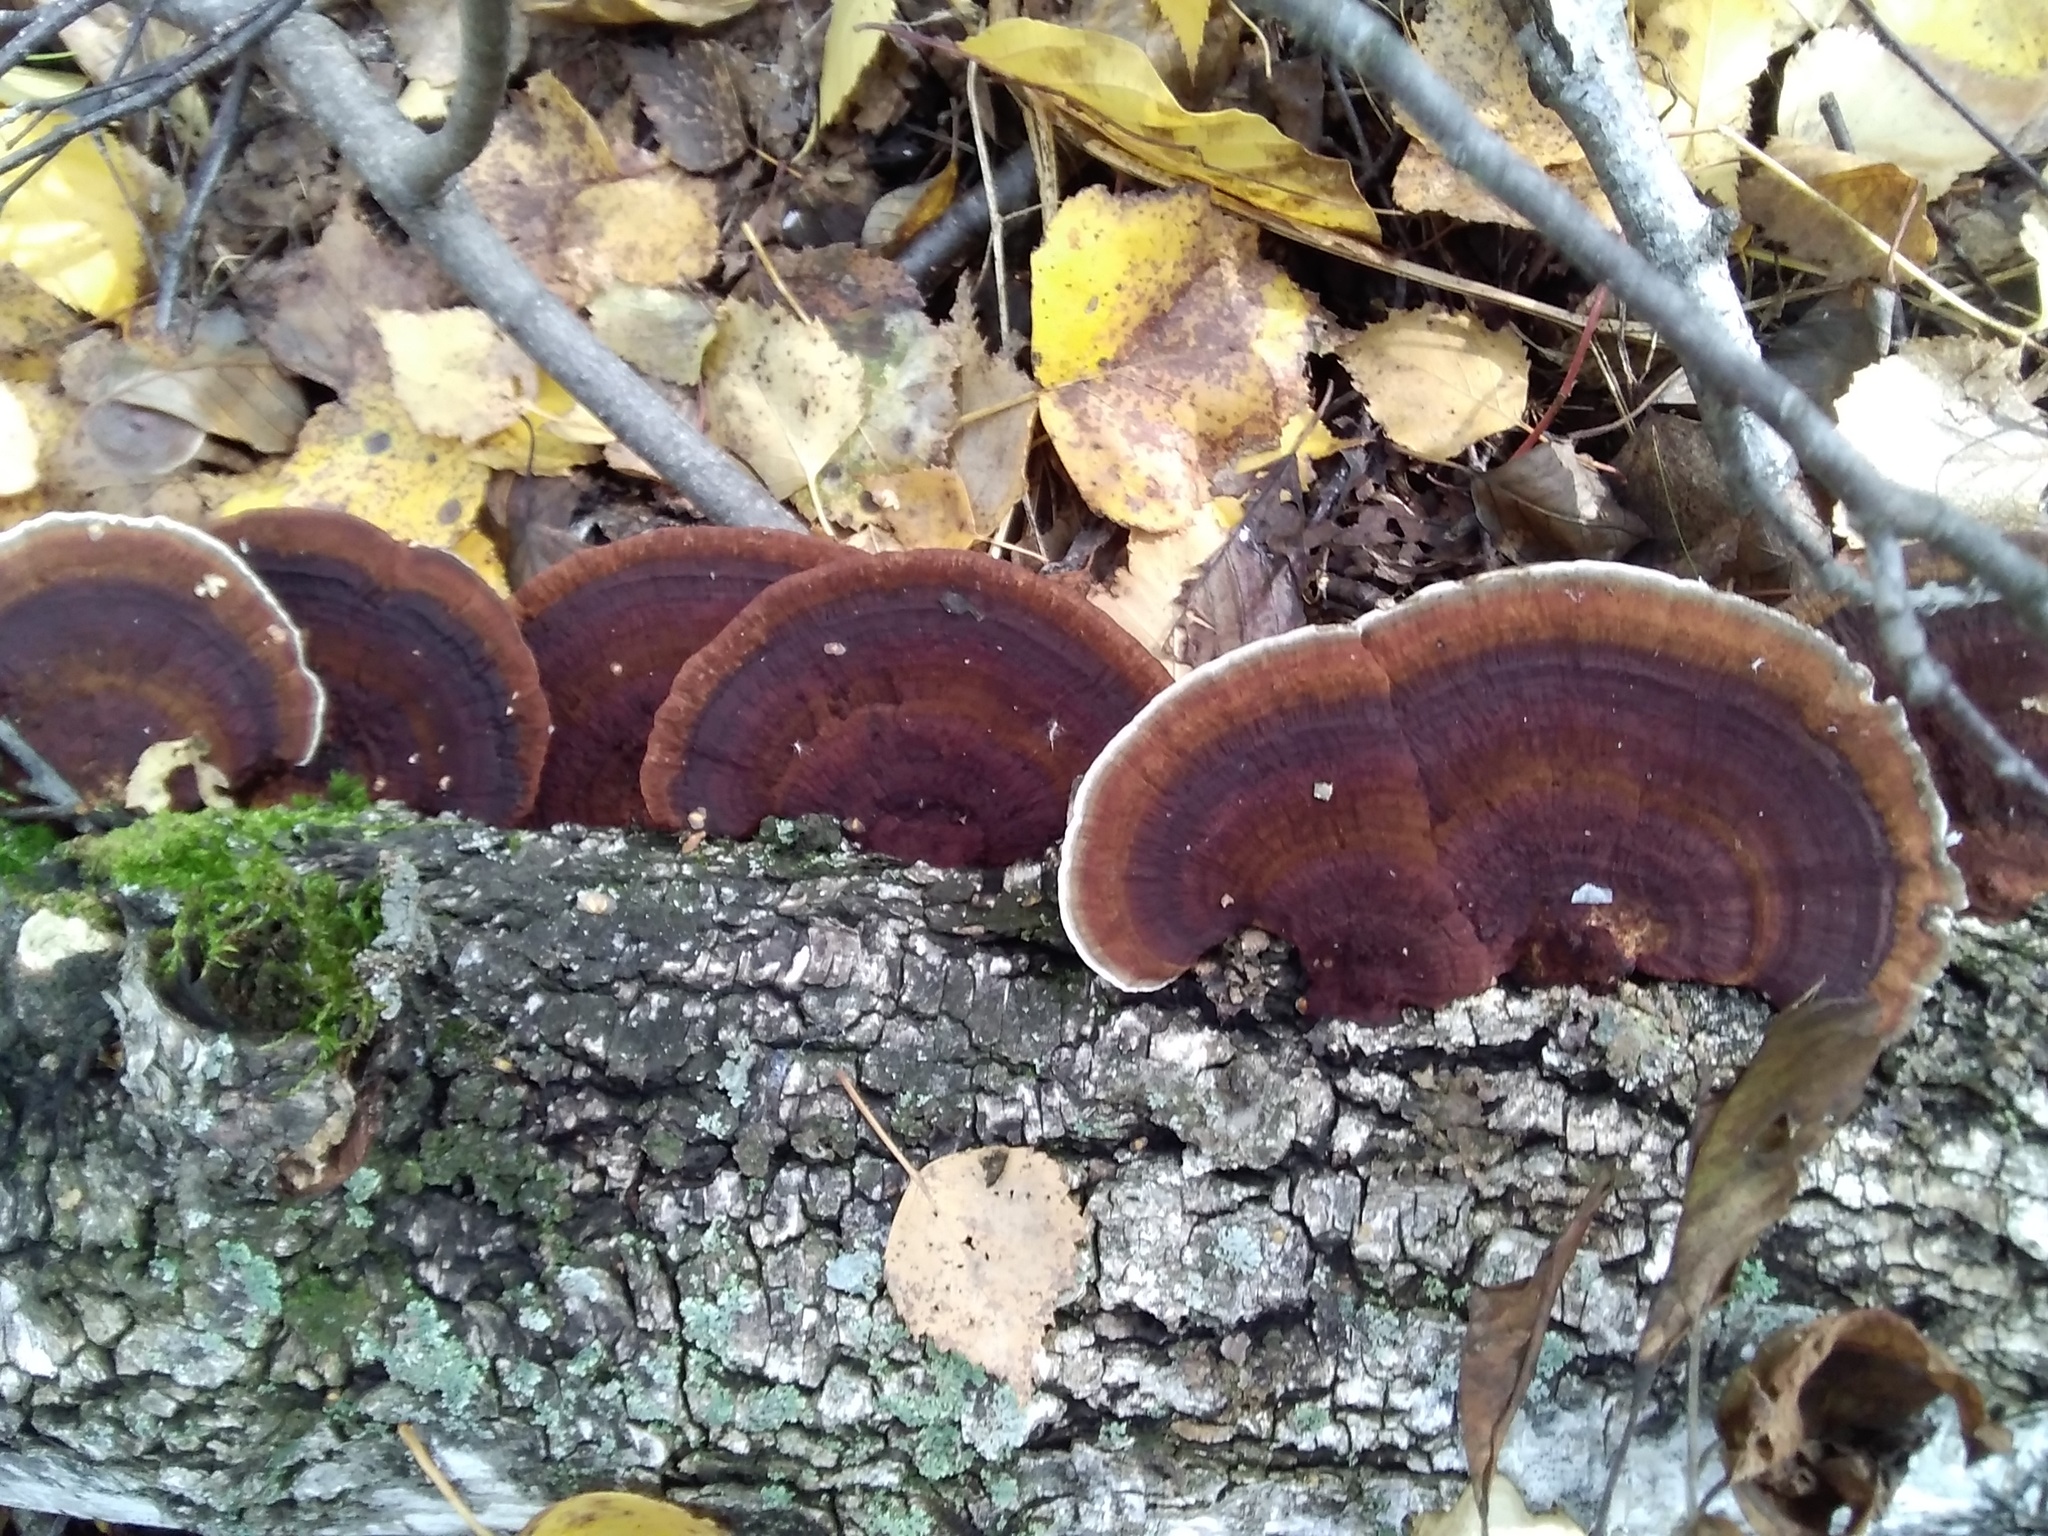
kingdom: Fungi
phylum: Basidiomycota
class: Agaricomycetes
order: Polyporales
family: Polyporaceae
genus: Daedaleopsis
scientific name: Daedaleopsis tricolor
